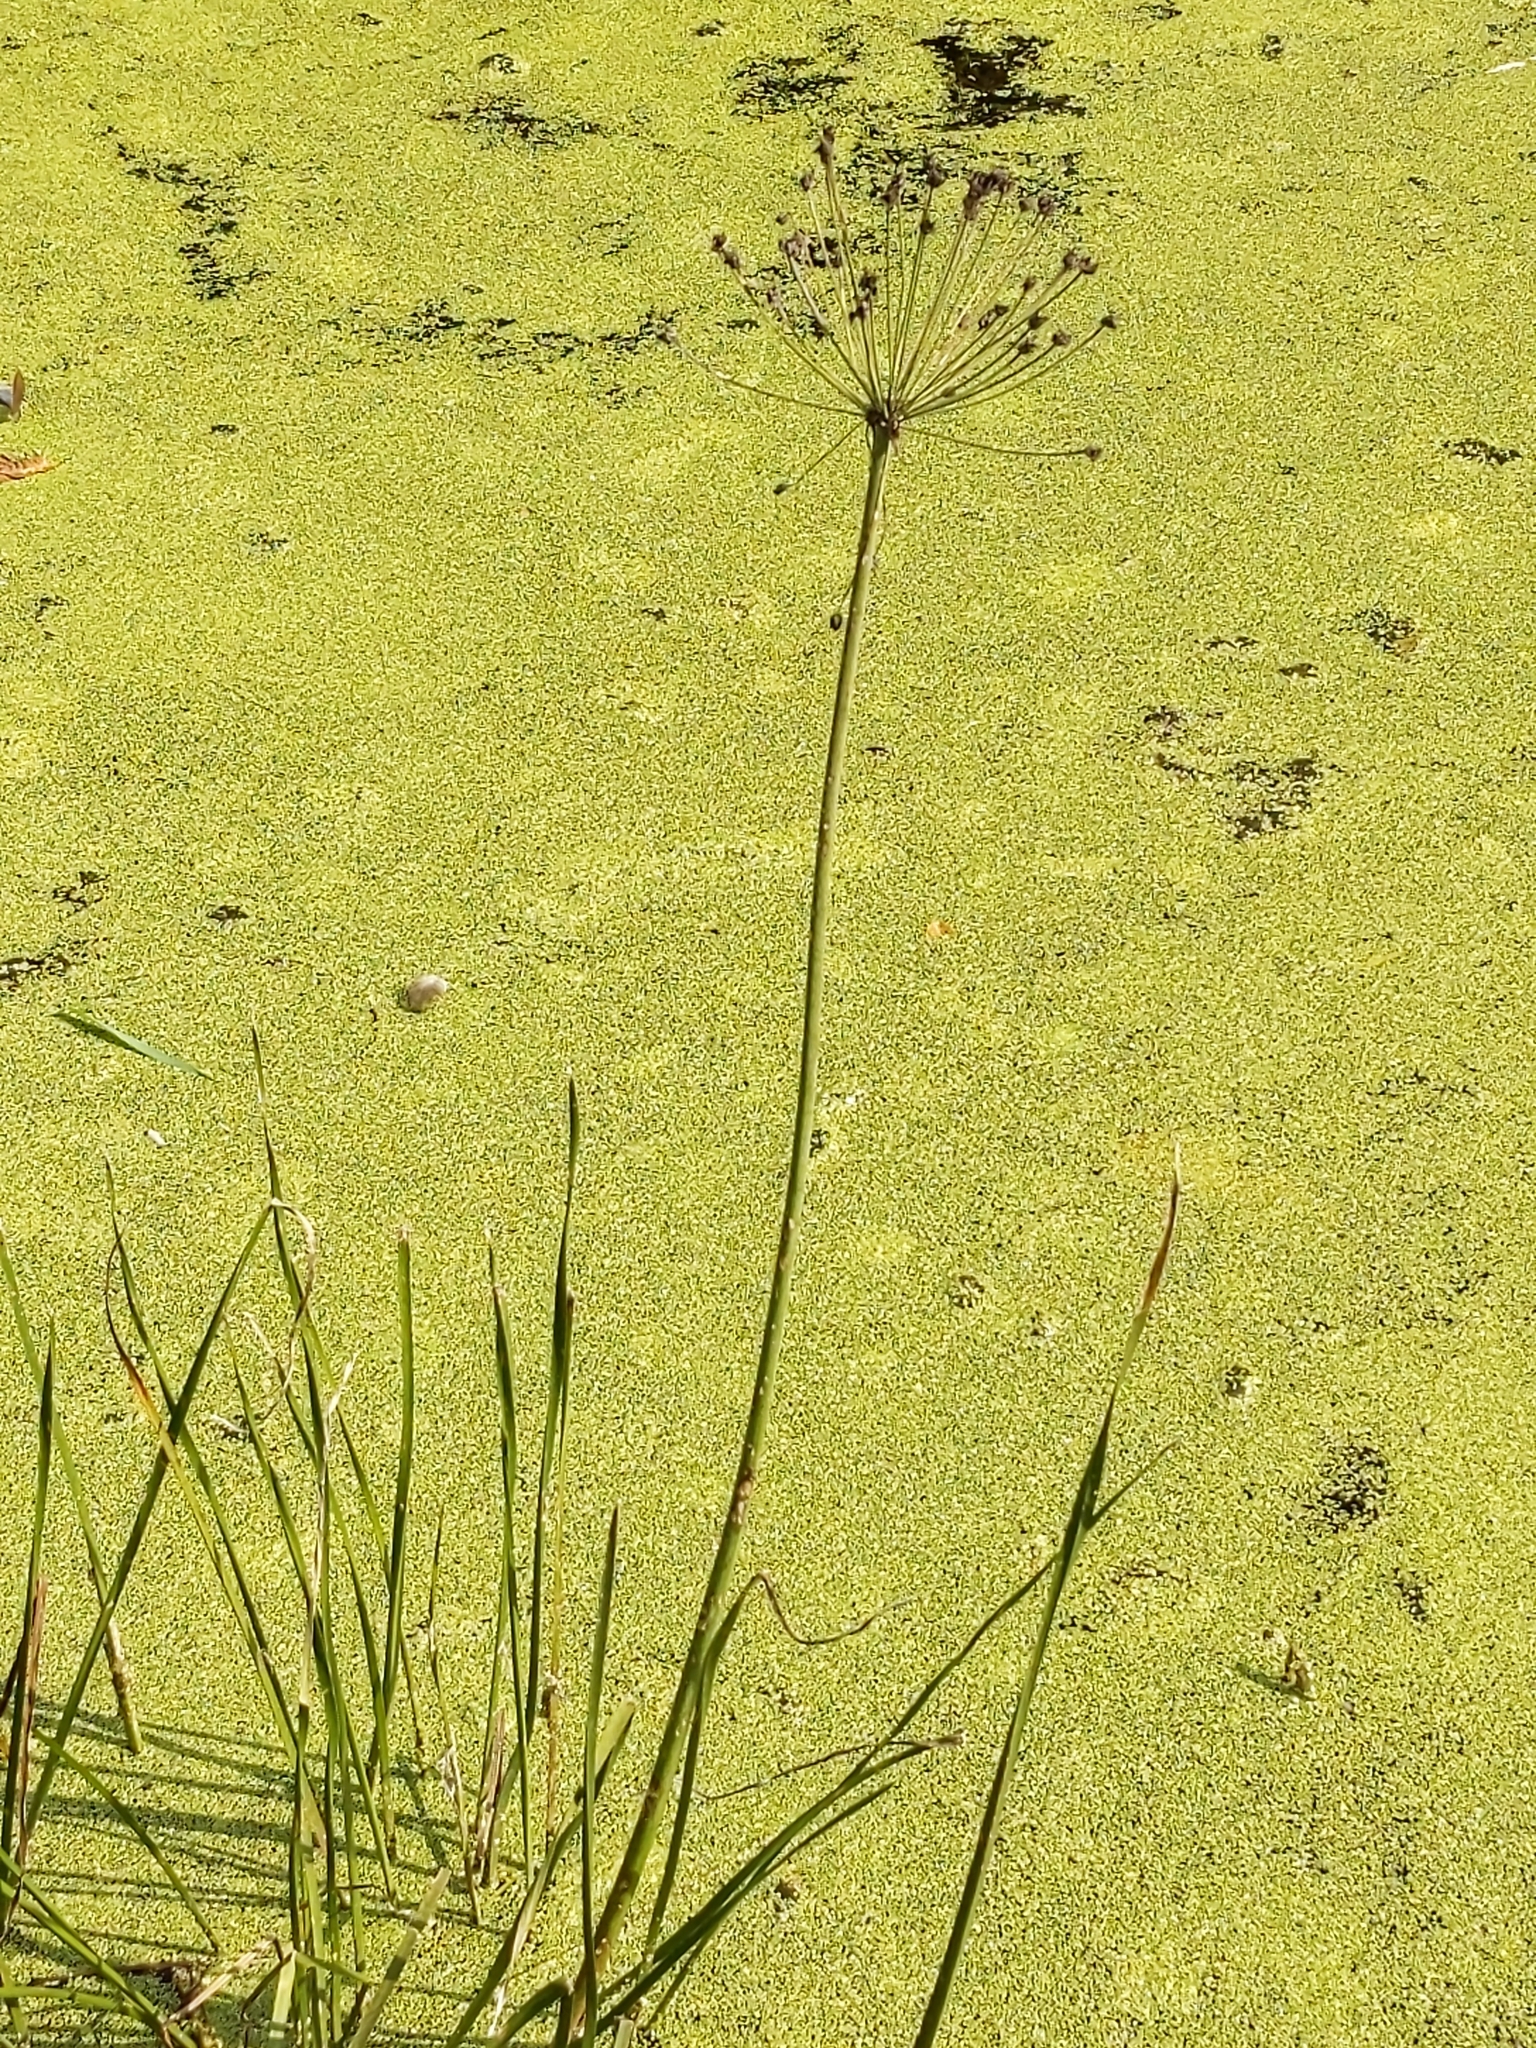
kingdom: Plantae
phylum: Tracheophyta
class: Liliopsida
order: Alismatales
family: Butomaceae
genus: Butomus
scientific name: Butomus umbellatus
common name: Flowering-rush
